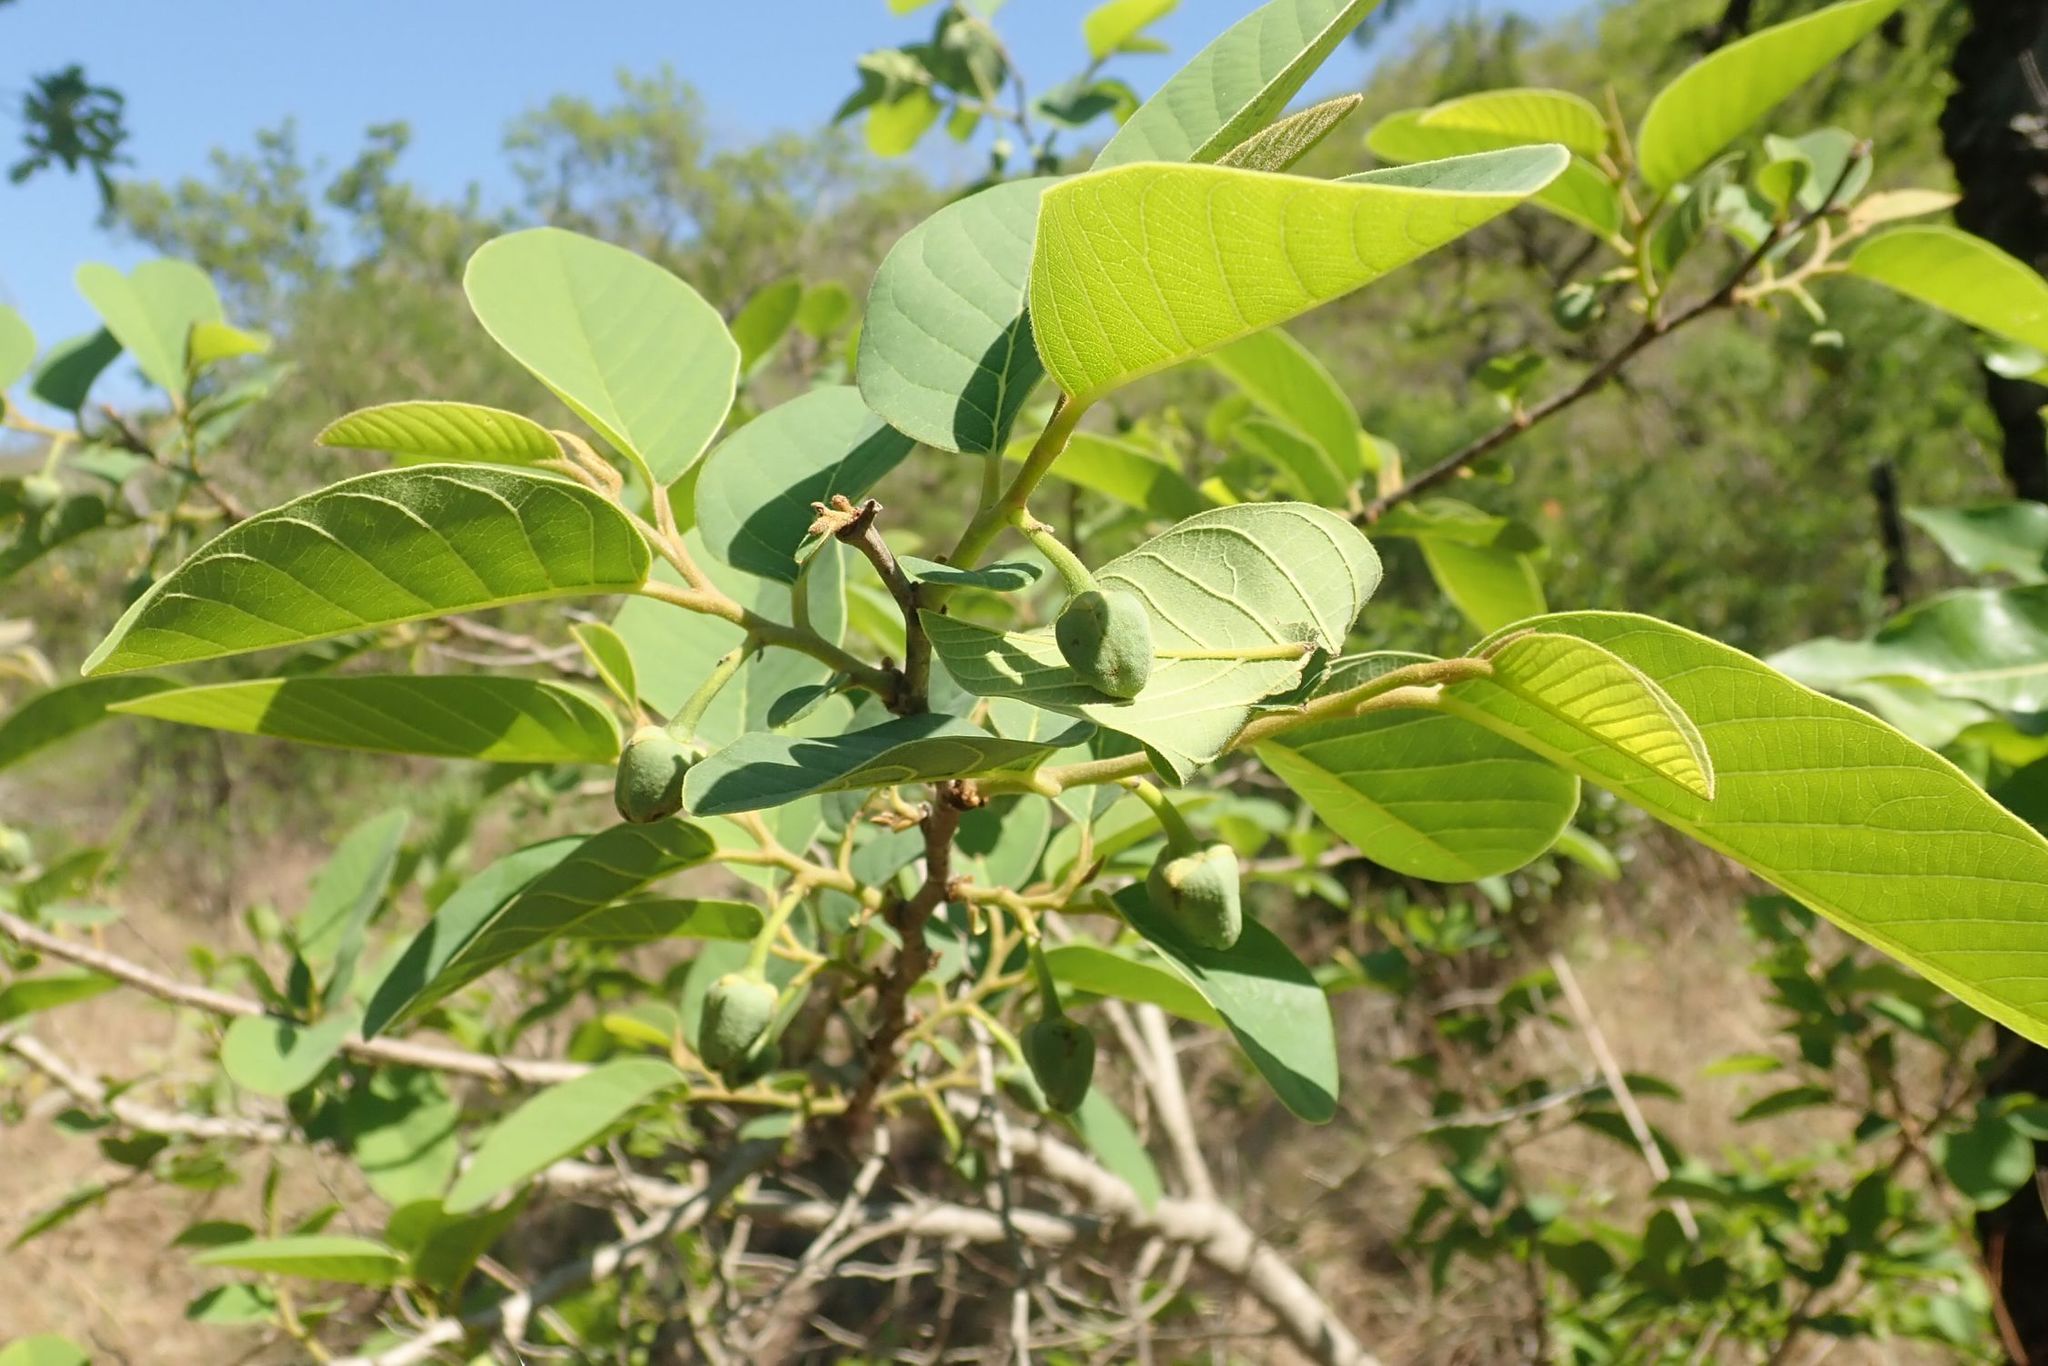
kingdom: Plantae
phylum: Tracheophyta
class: Magnoliopsida
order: Magnoliales
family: Annonaceae
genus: Annona
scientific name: Annona senegalensis
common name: Wild custard-apple
